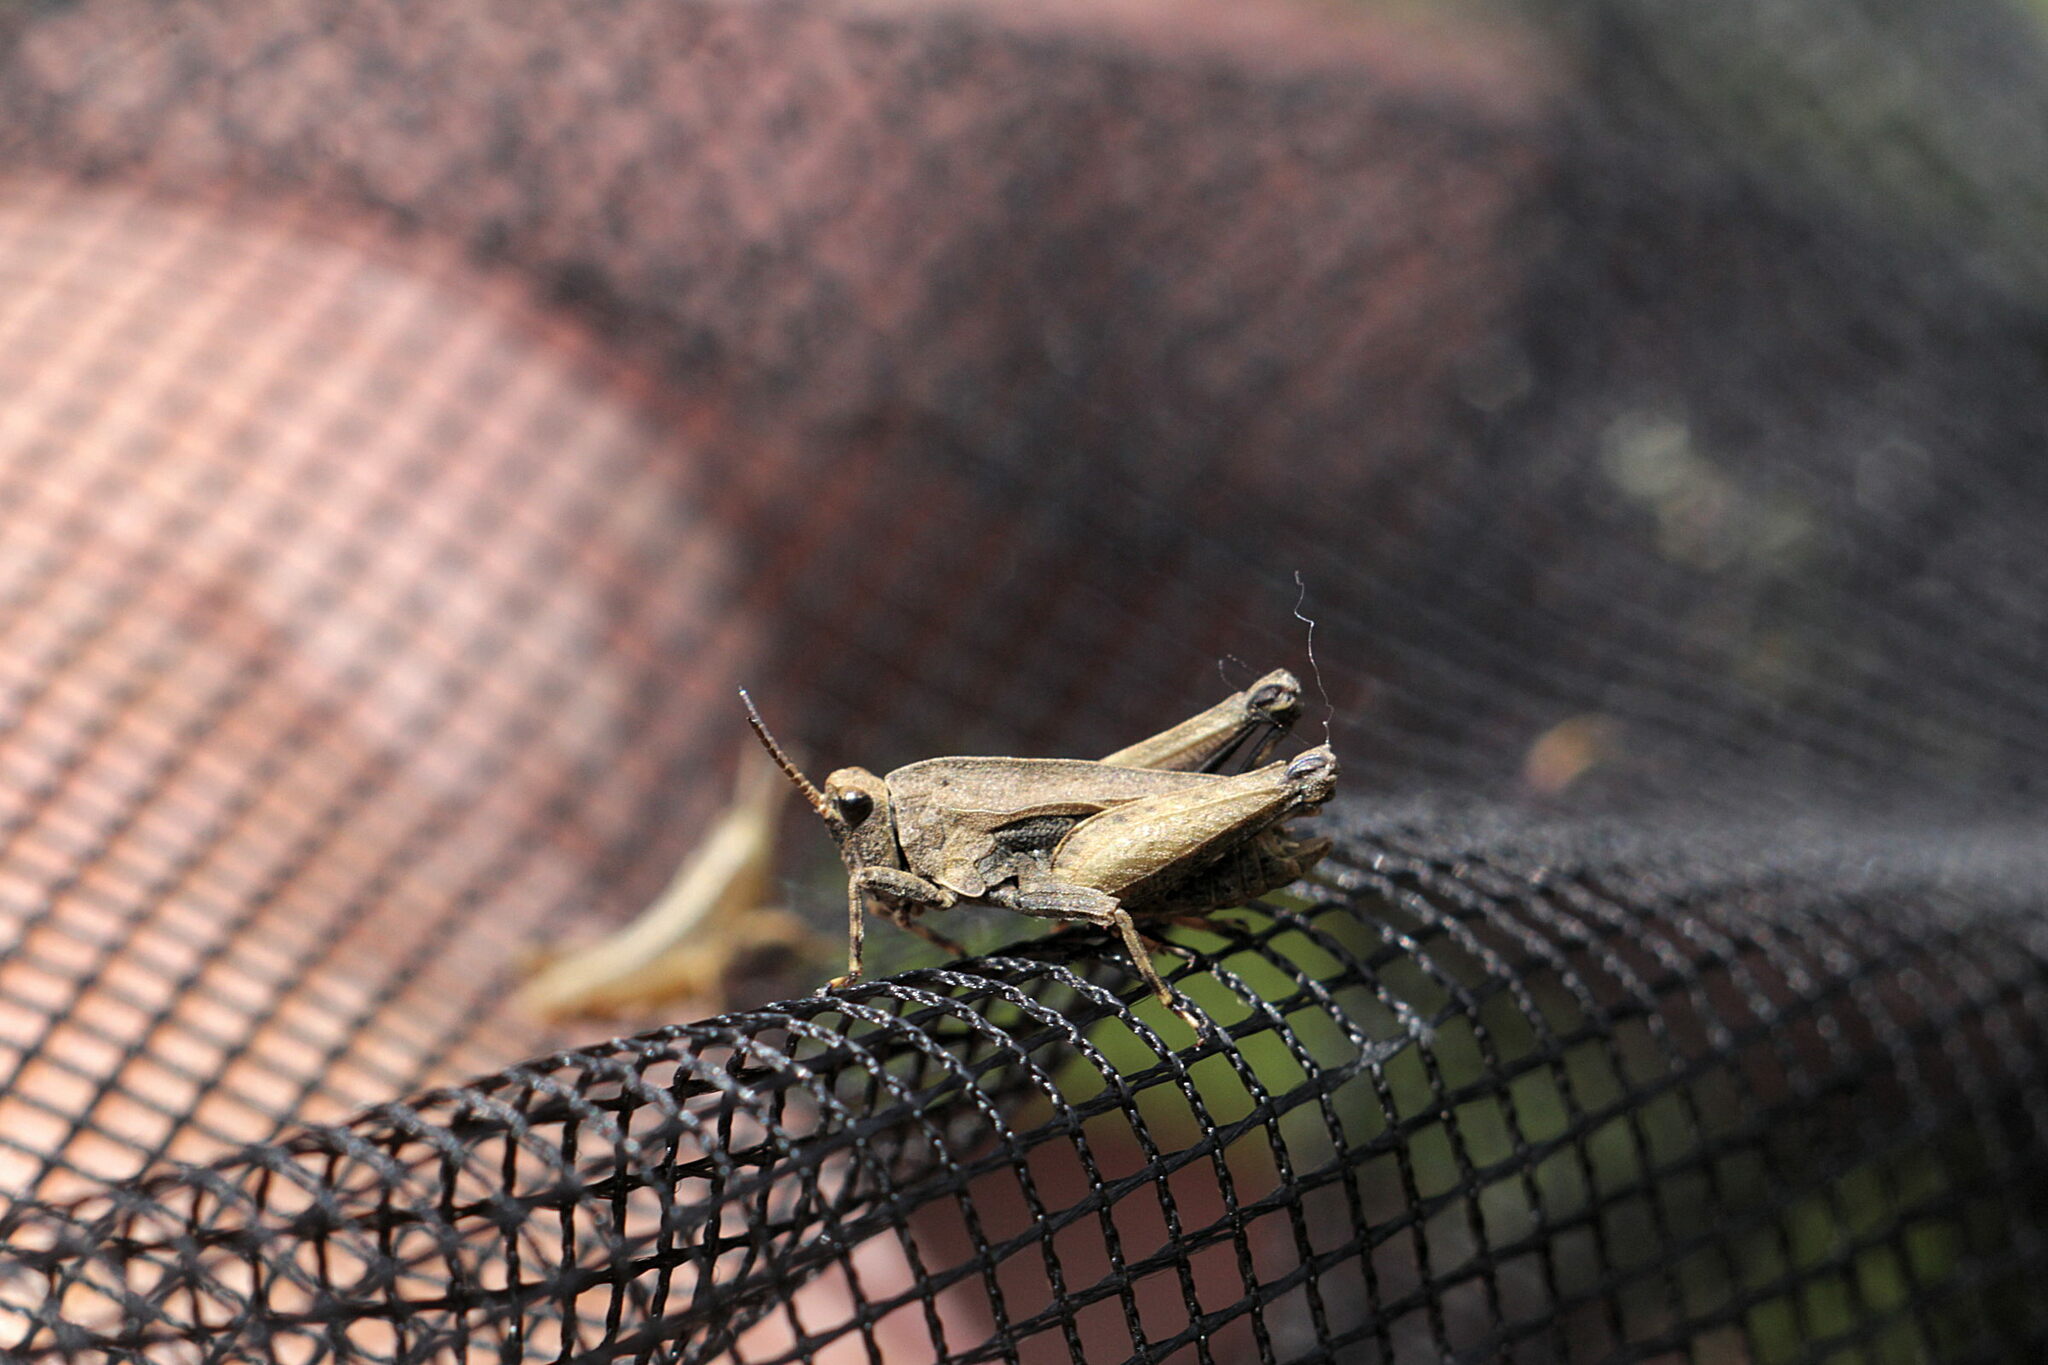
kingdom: Animalia
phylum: Arthropoda
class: Insecta
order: Orthoptera
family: Tetrigidae
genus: Tetrix
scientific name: Tetrix undulata
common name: Common groundhopper
